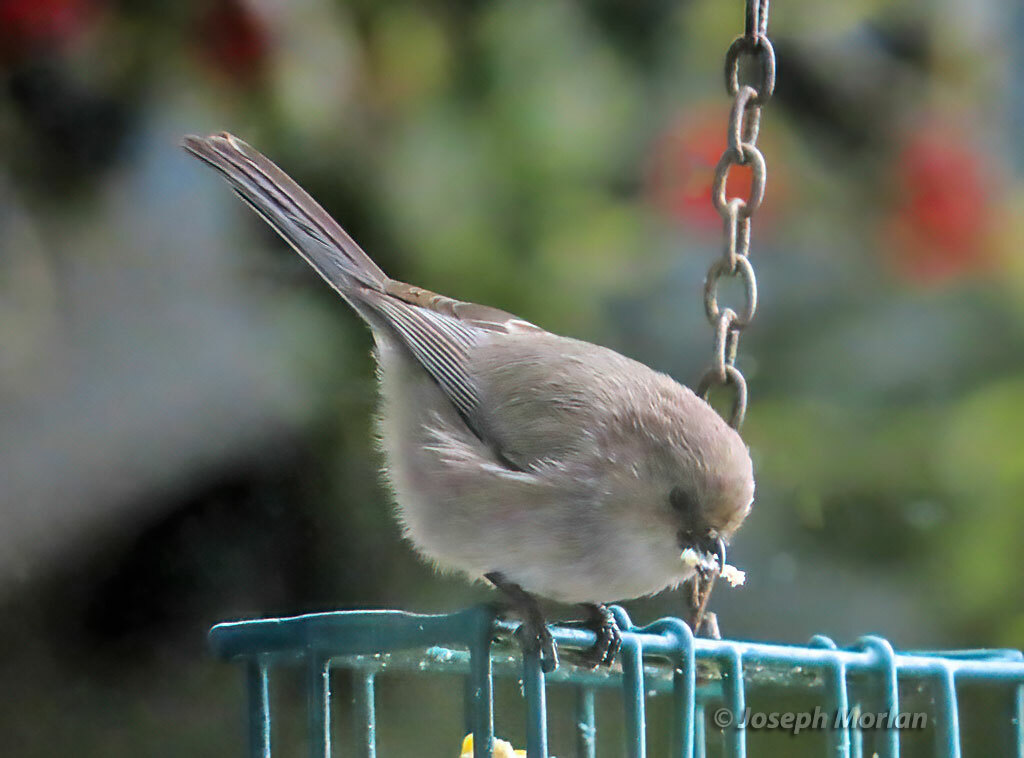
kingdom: Animalia
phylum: Chordata
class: Aves
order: Passeriformes
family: Aegithalidae
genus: Psaltriparus
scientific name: Psaltriparus minimus
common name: American bushtit
